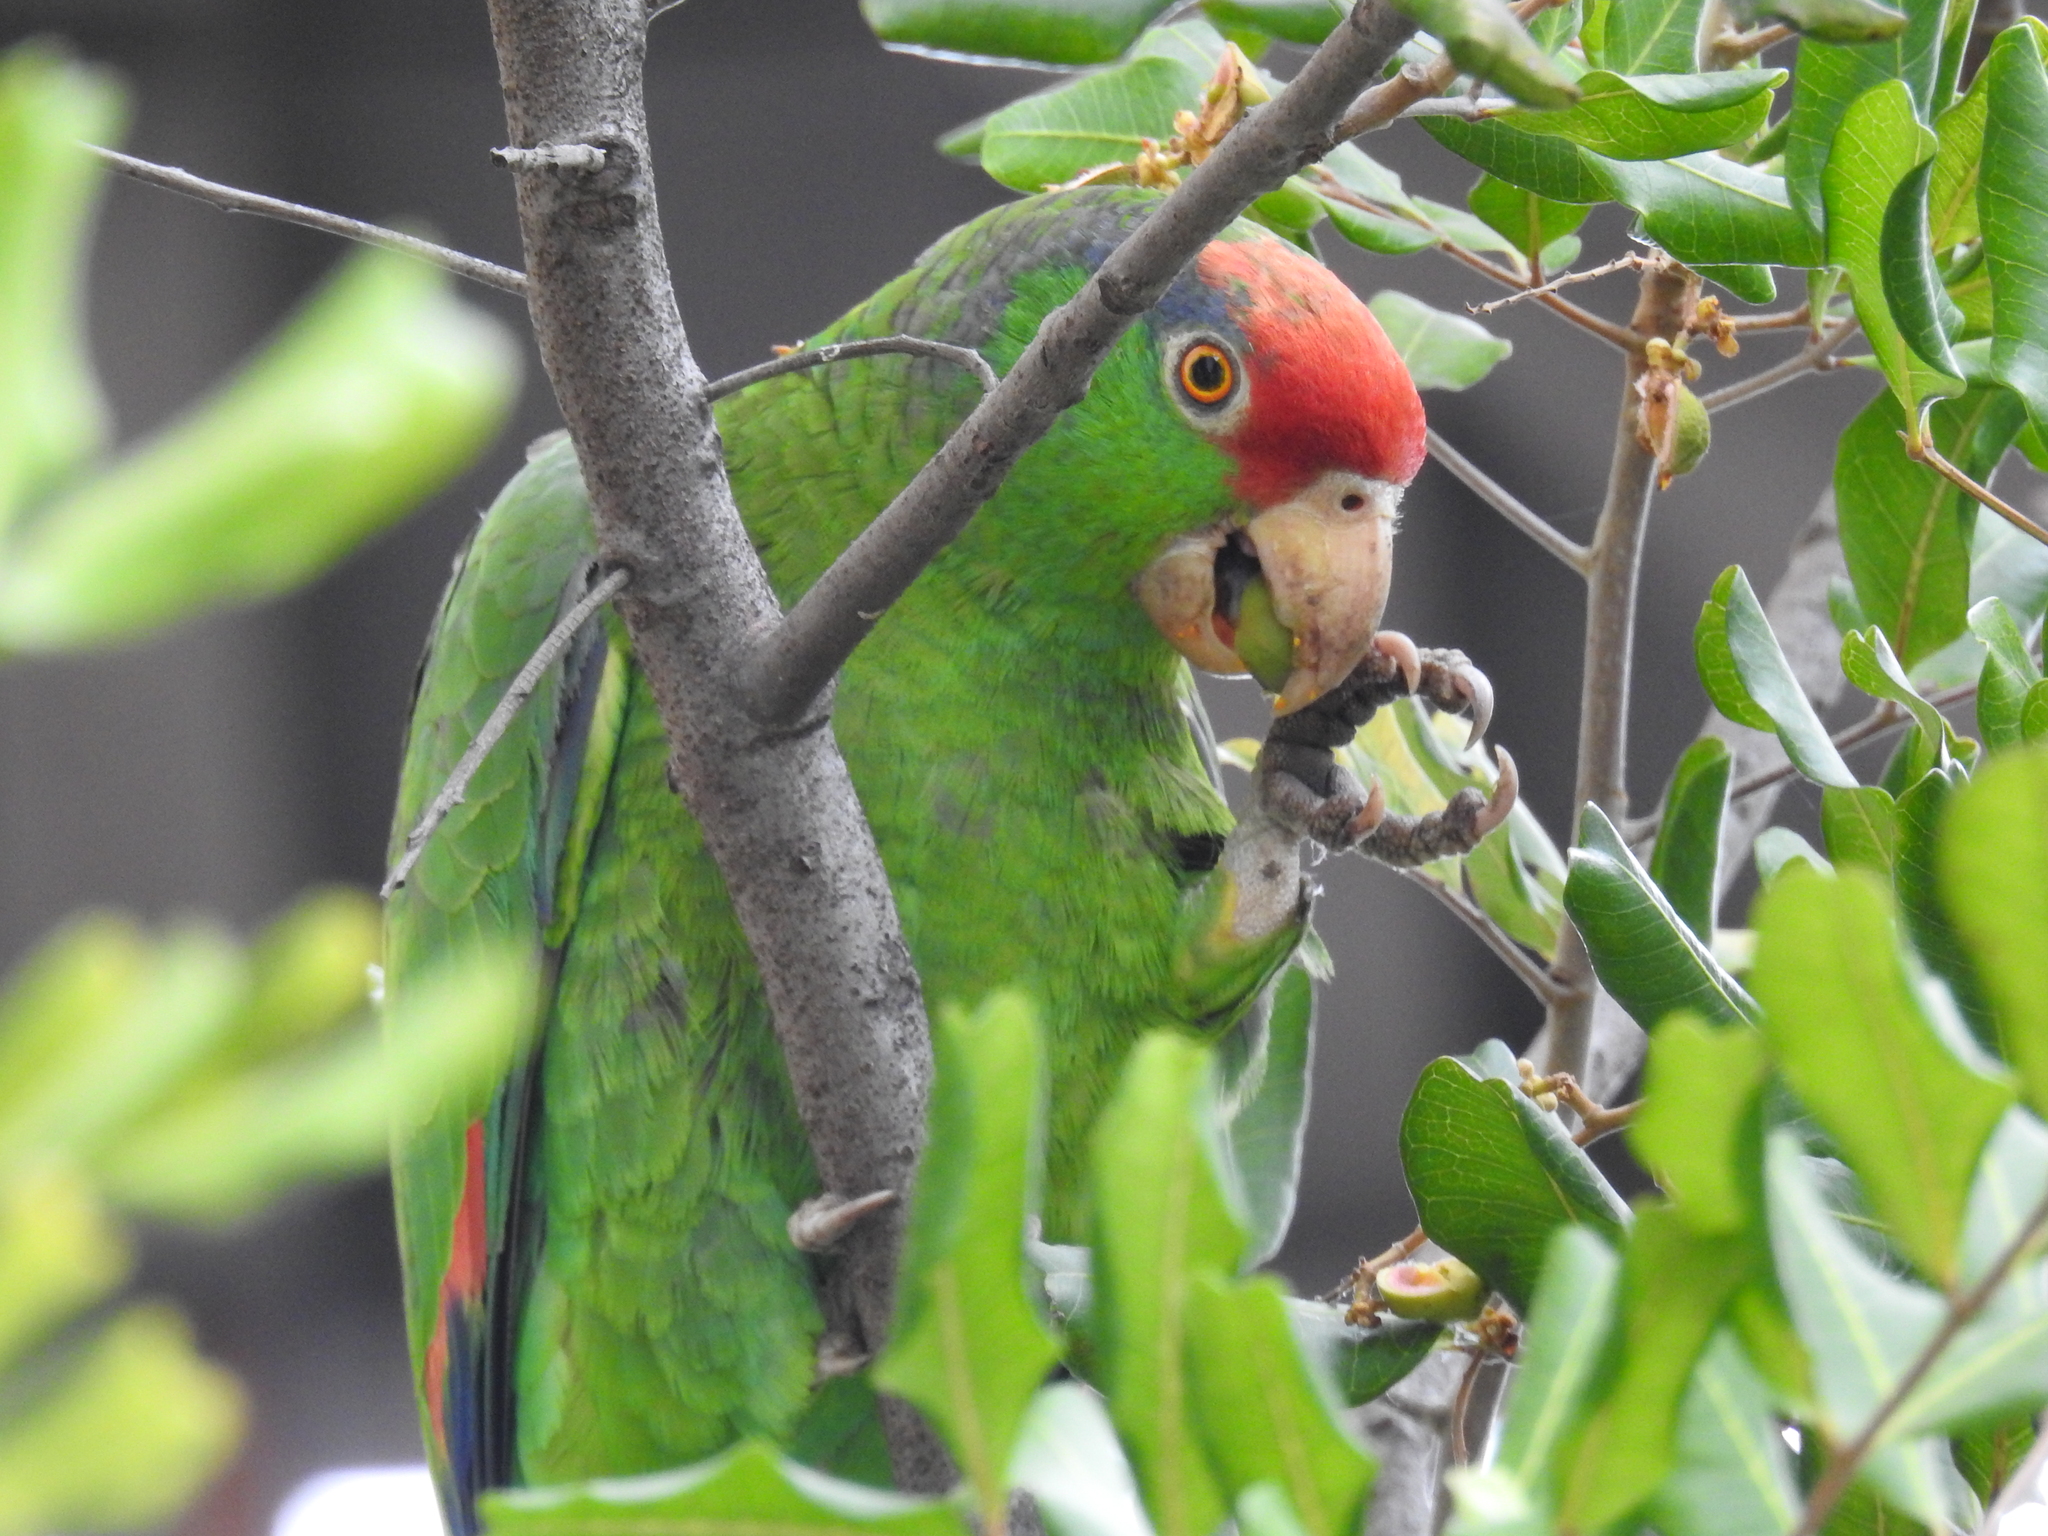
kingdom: Animalia
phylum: Chordata
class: Aves
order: Psittaciformes
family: Psittacidae
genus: Amazona
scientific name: Amazona viridigenalis
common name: Red-crowned amazon
